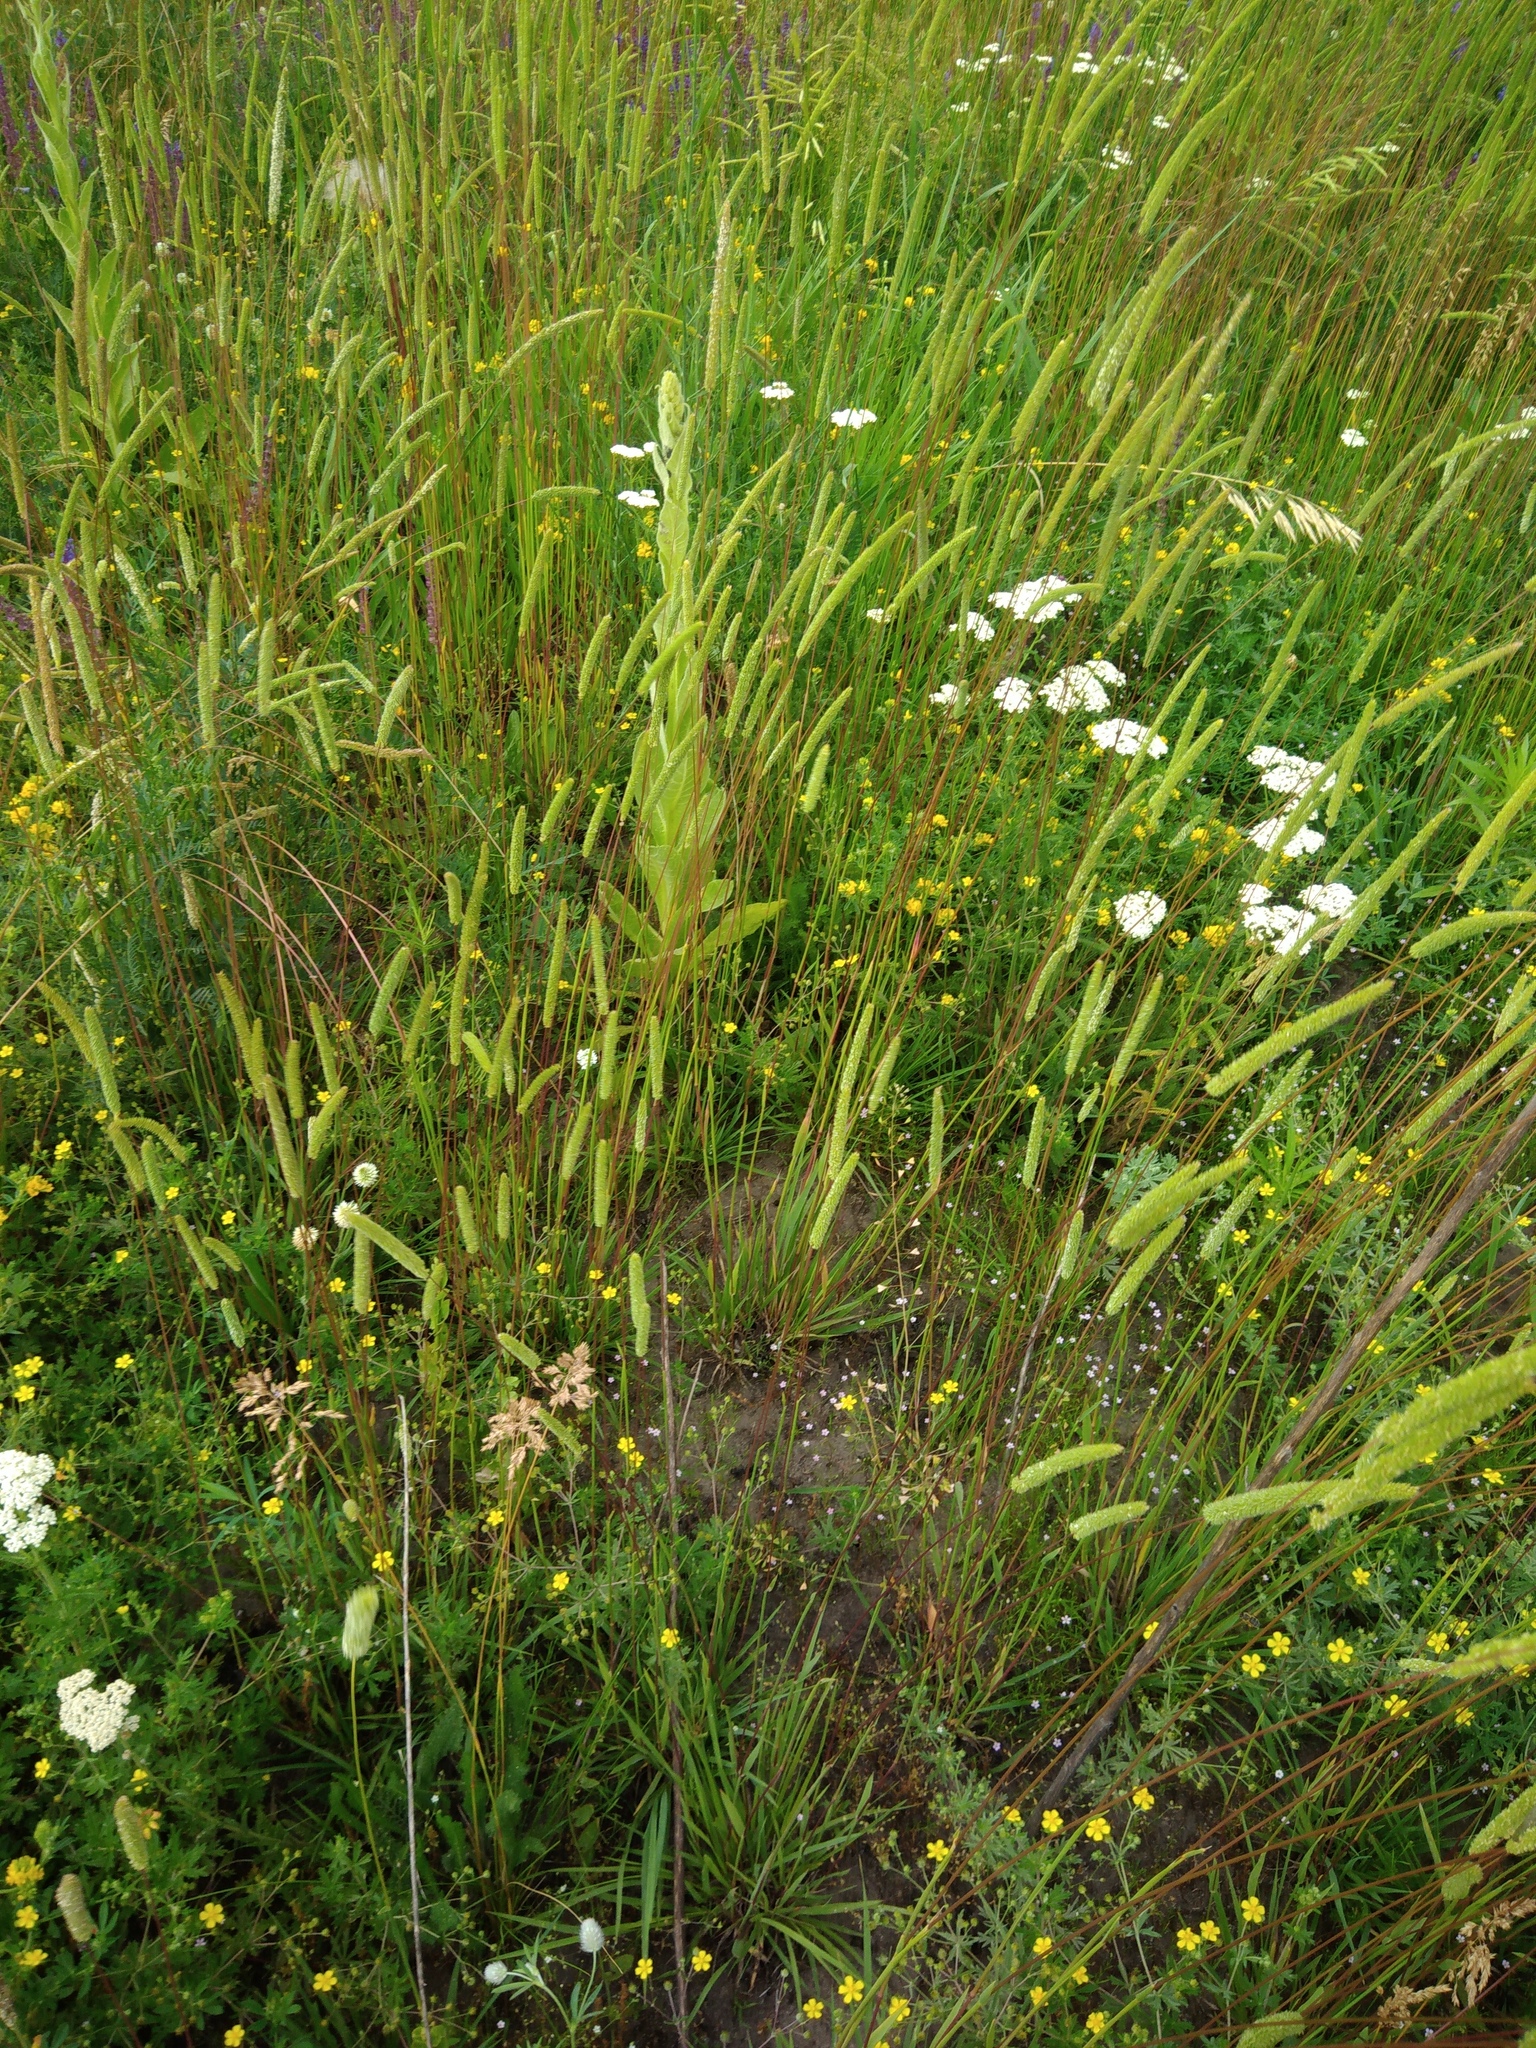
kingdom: Plantae
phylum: Tracheophyta
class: Liliopsida
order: Poales
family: Poaceae
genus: Phleum
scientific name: Phleum phleoides
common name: Purple-stem cat's-tail
